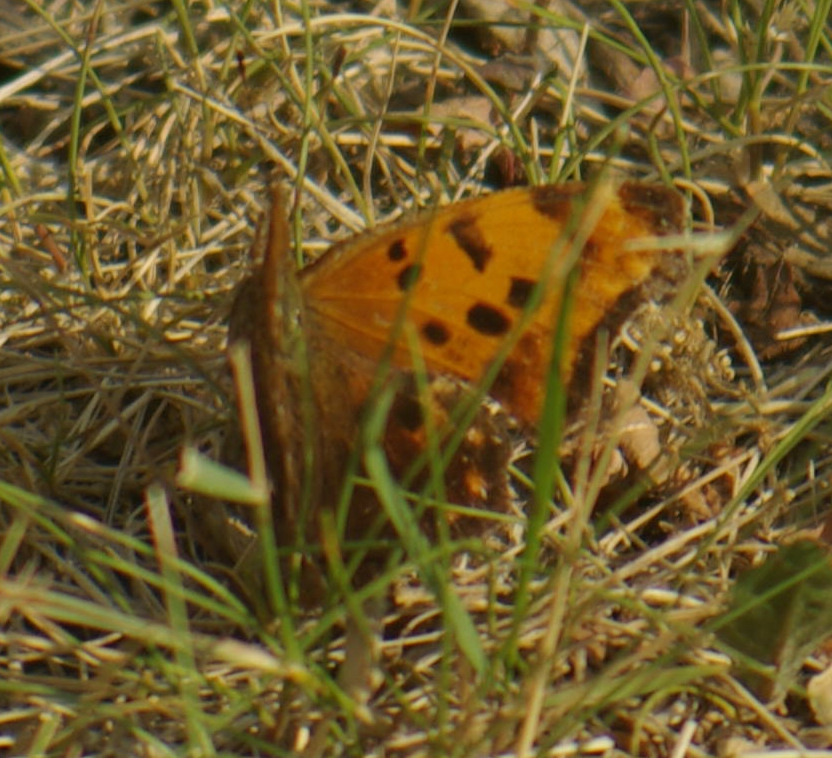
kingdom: Animalia
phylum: Arthropoda
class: Insecta
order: Lepidoptera
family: Nymphalidae
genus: Polygonia
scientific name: Polygonia comma
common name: Eastern comma
